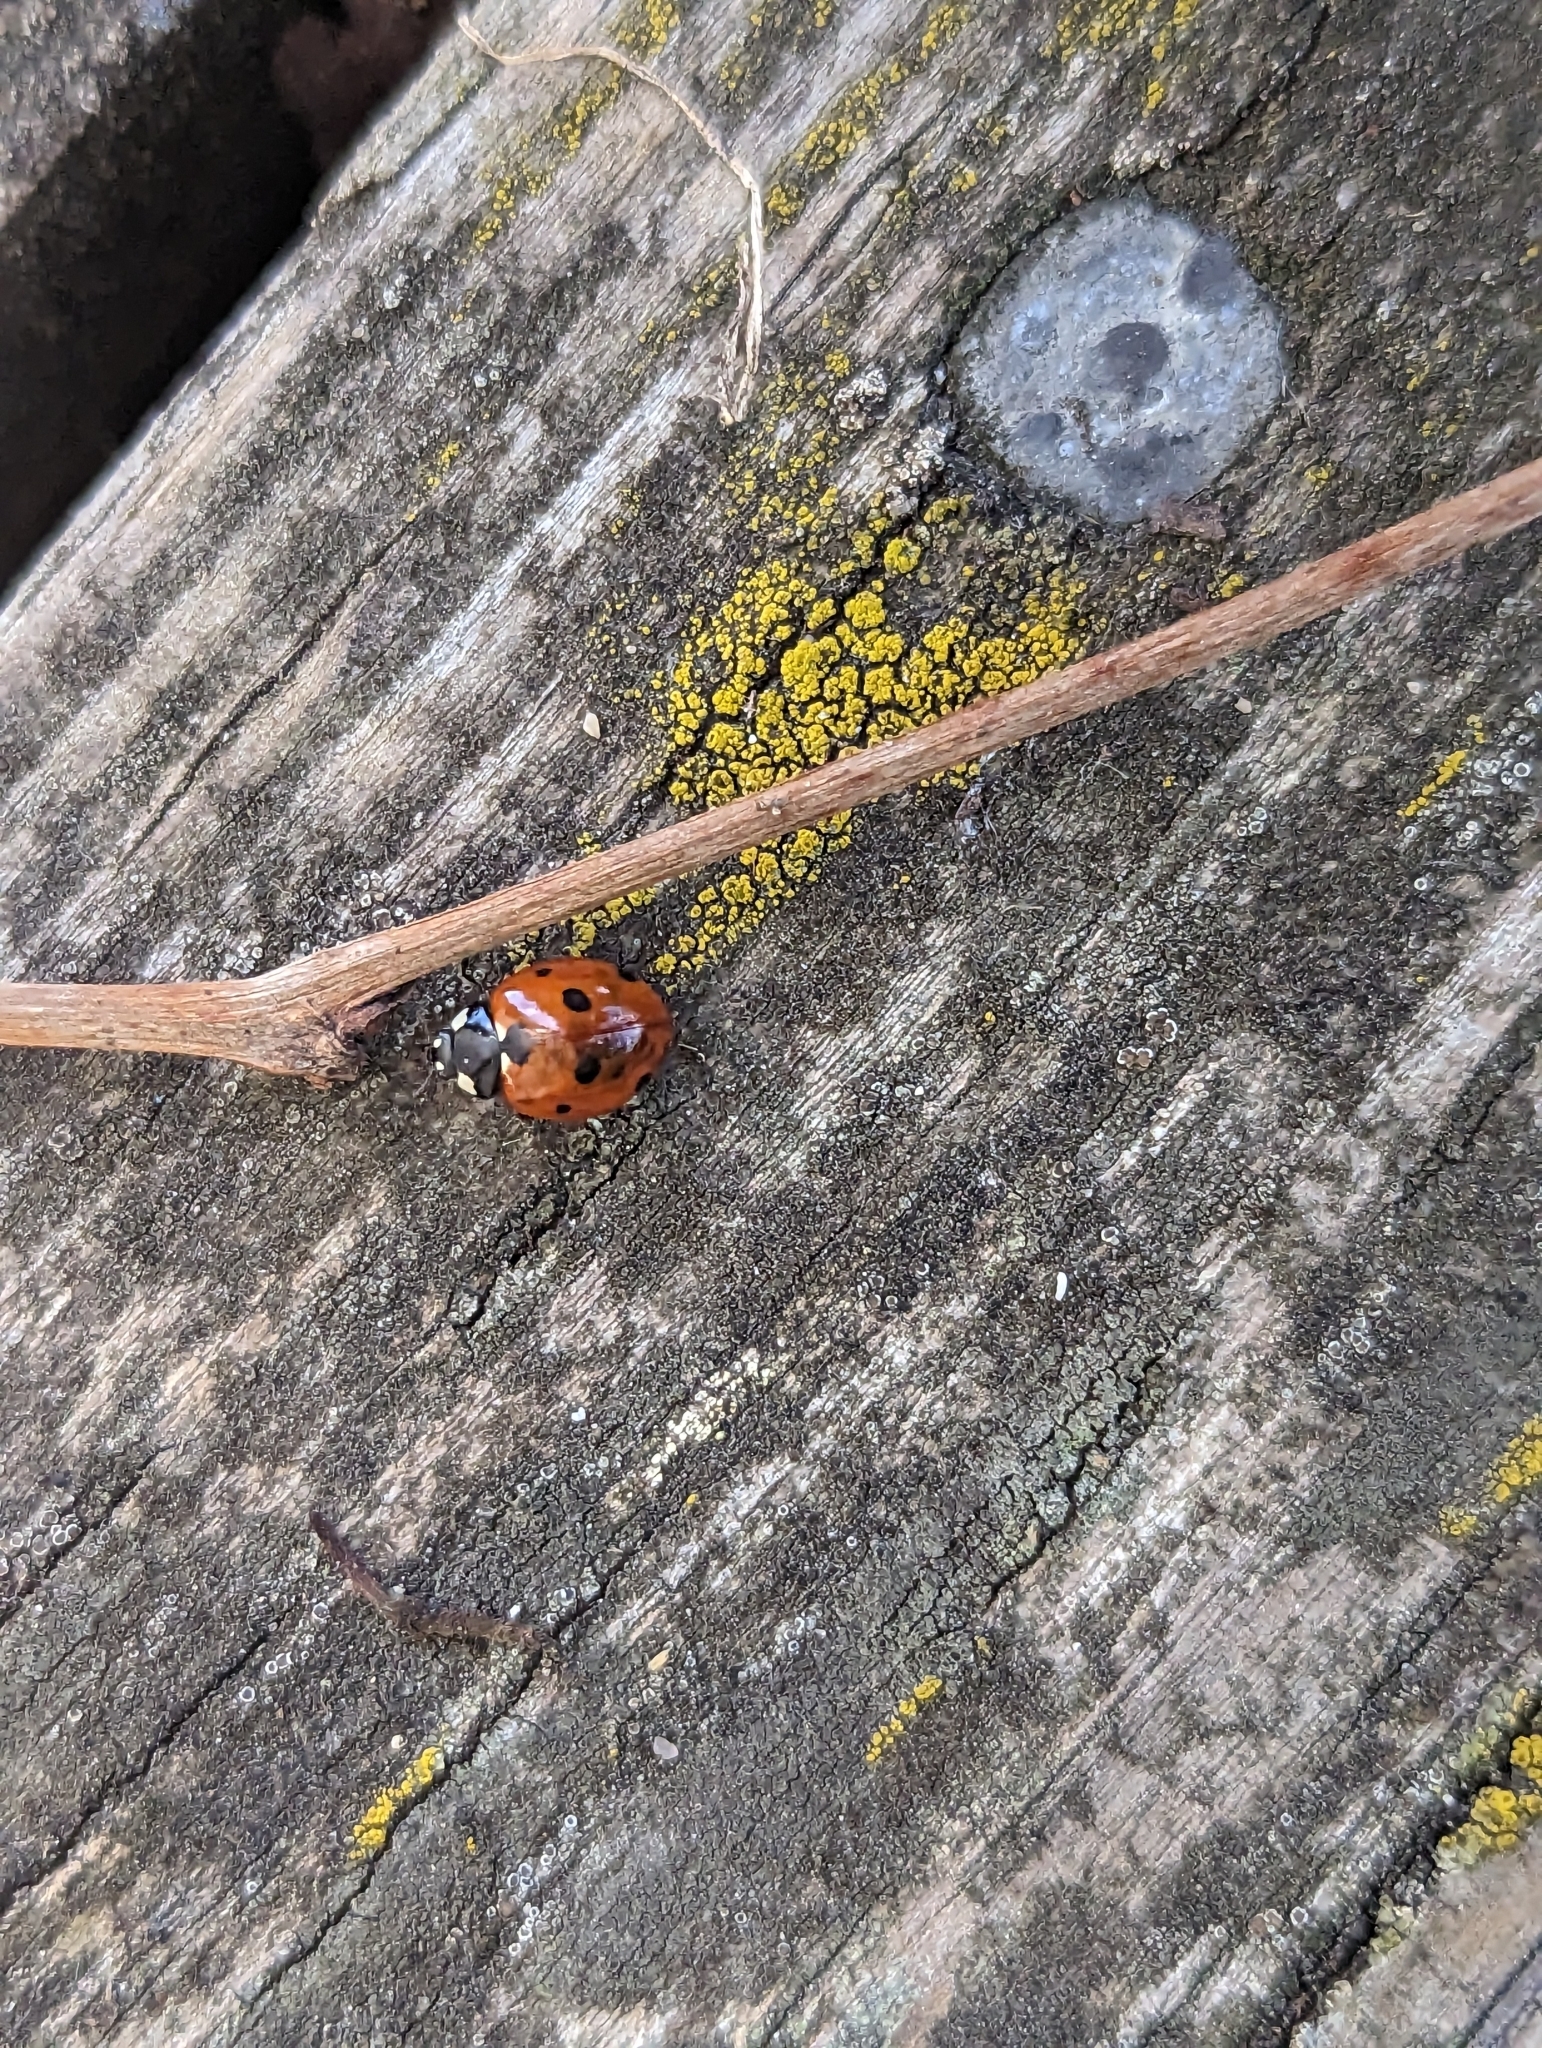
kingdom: Animalia
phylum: Arthropoda
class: Insecta
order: Coleoptera
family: Coccinellidae
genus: Coccinella
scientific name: Coccinella septempunctata
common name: Sevenspotted lady beetle
